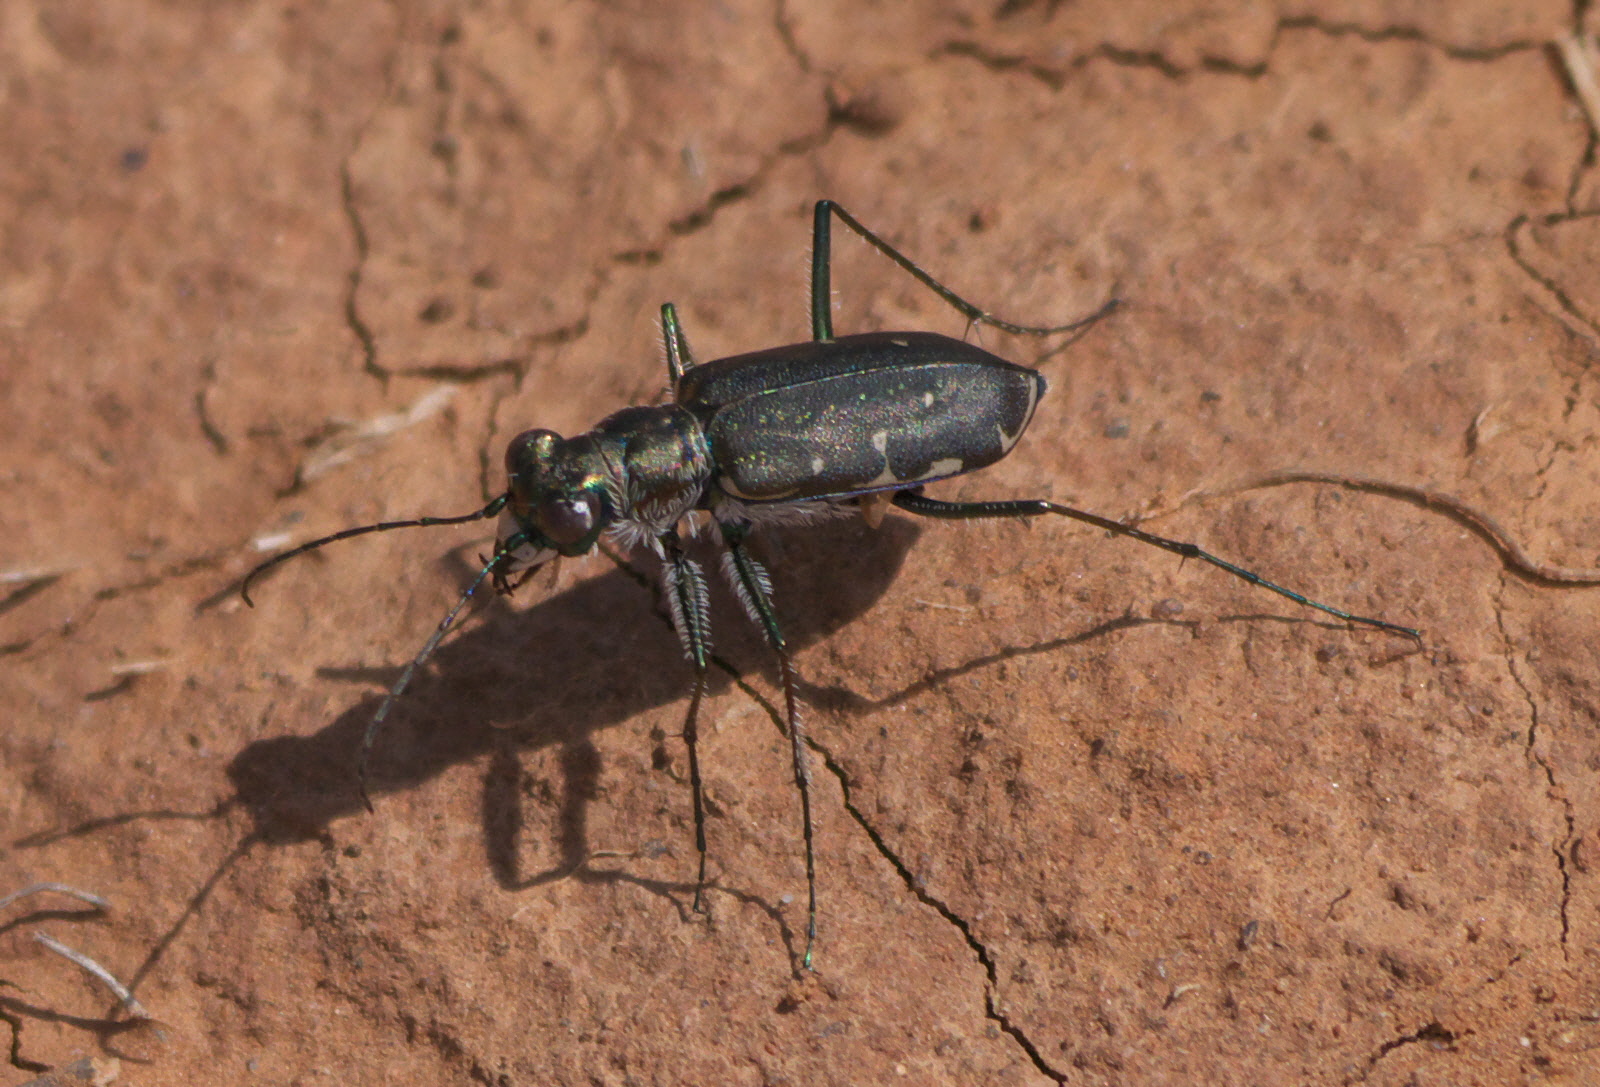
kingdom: Animalia
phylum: Arthropoda
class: Insecta
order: Coleoptera
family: Carabidae
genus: Cicindela
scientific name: Cicindela punctulata
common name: Punctured tiger beetle
